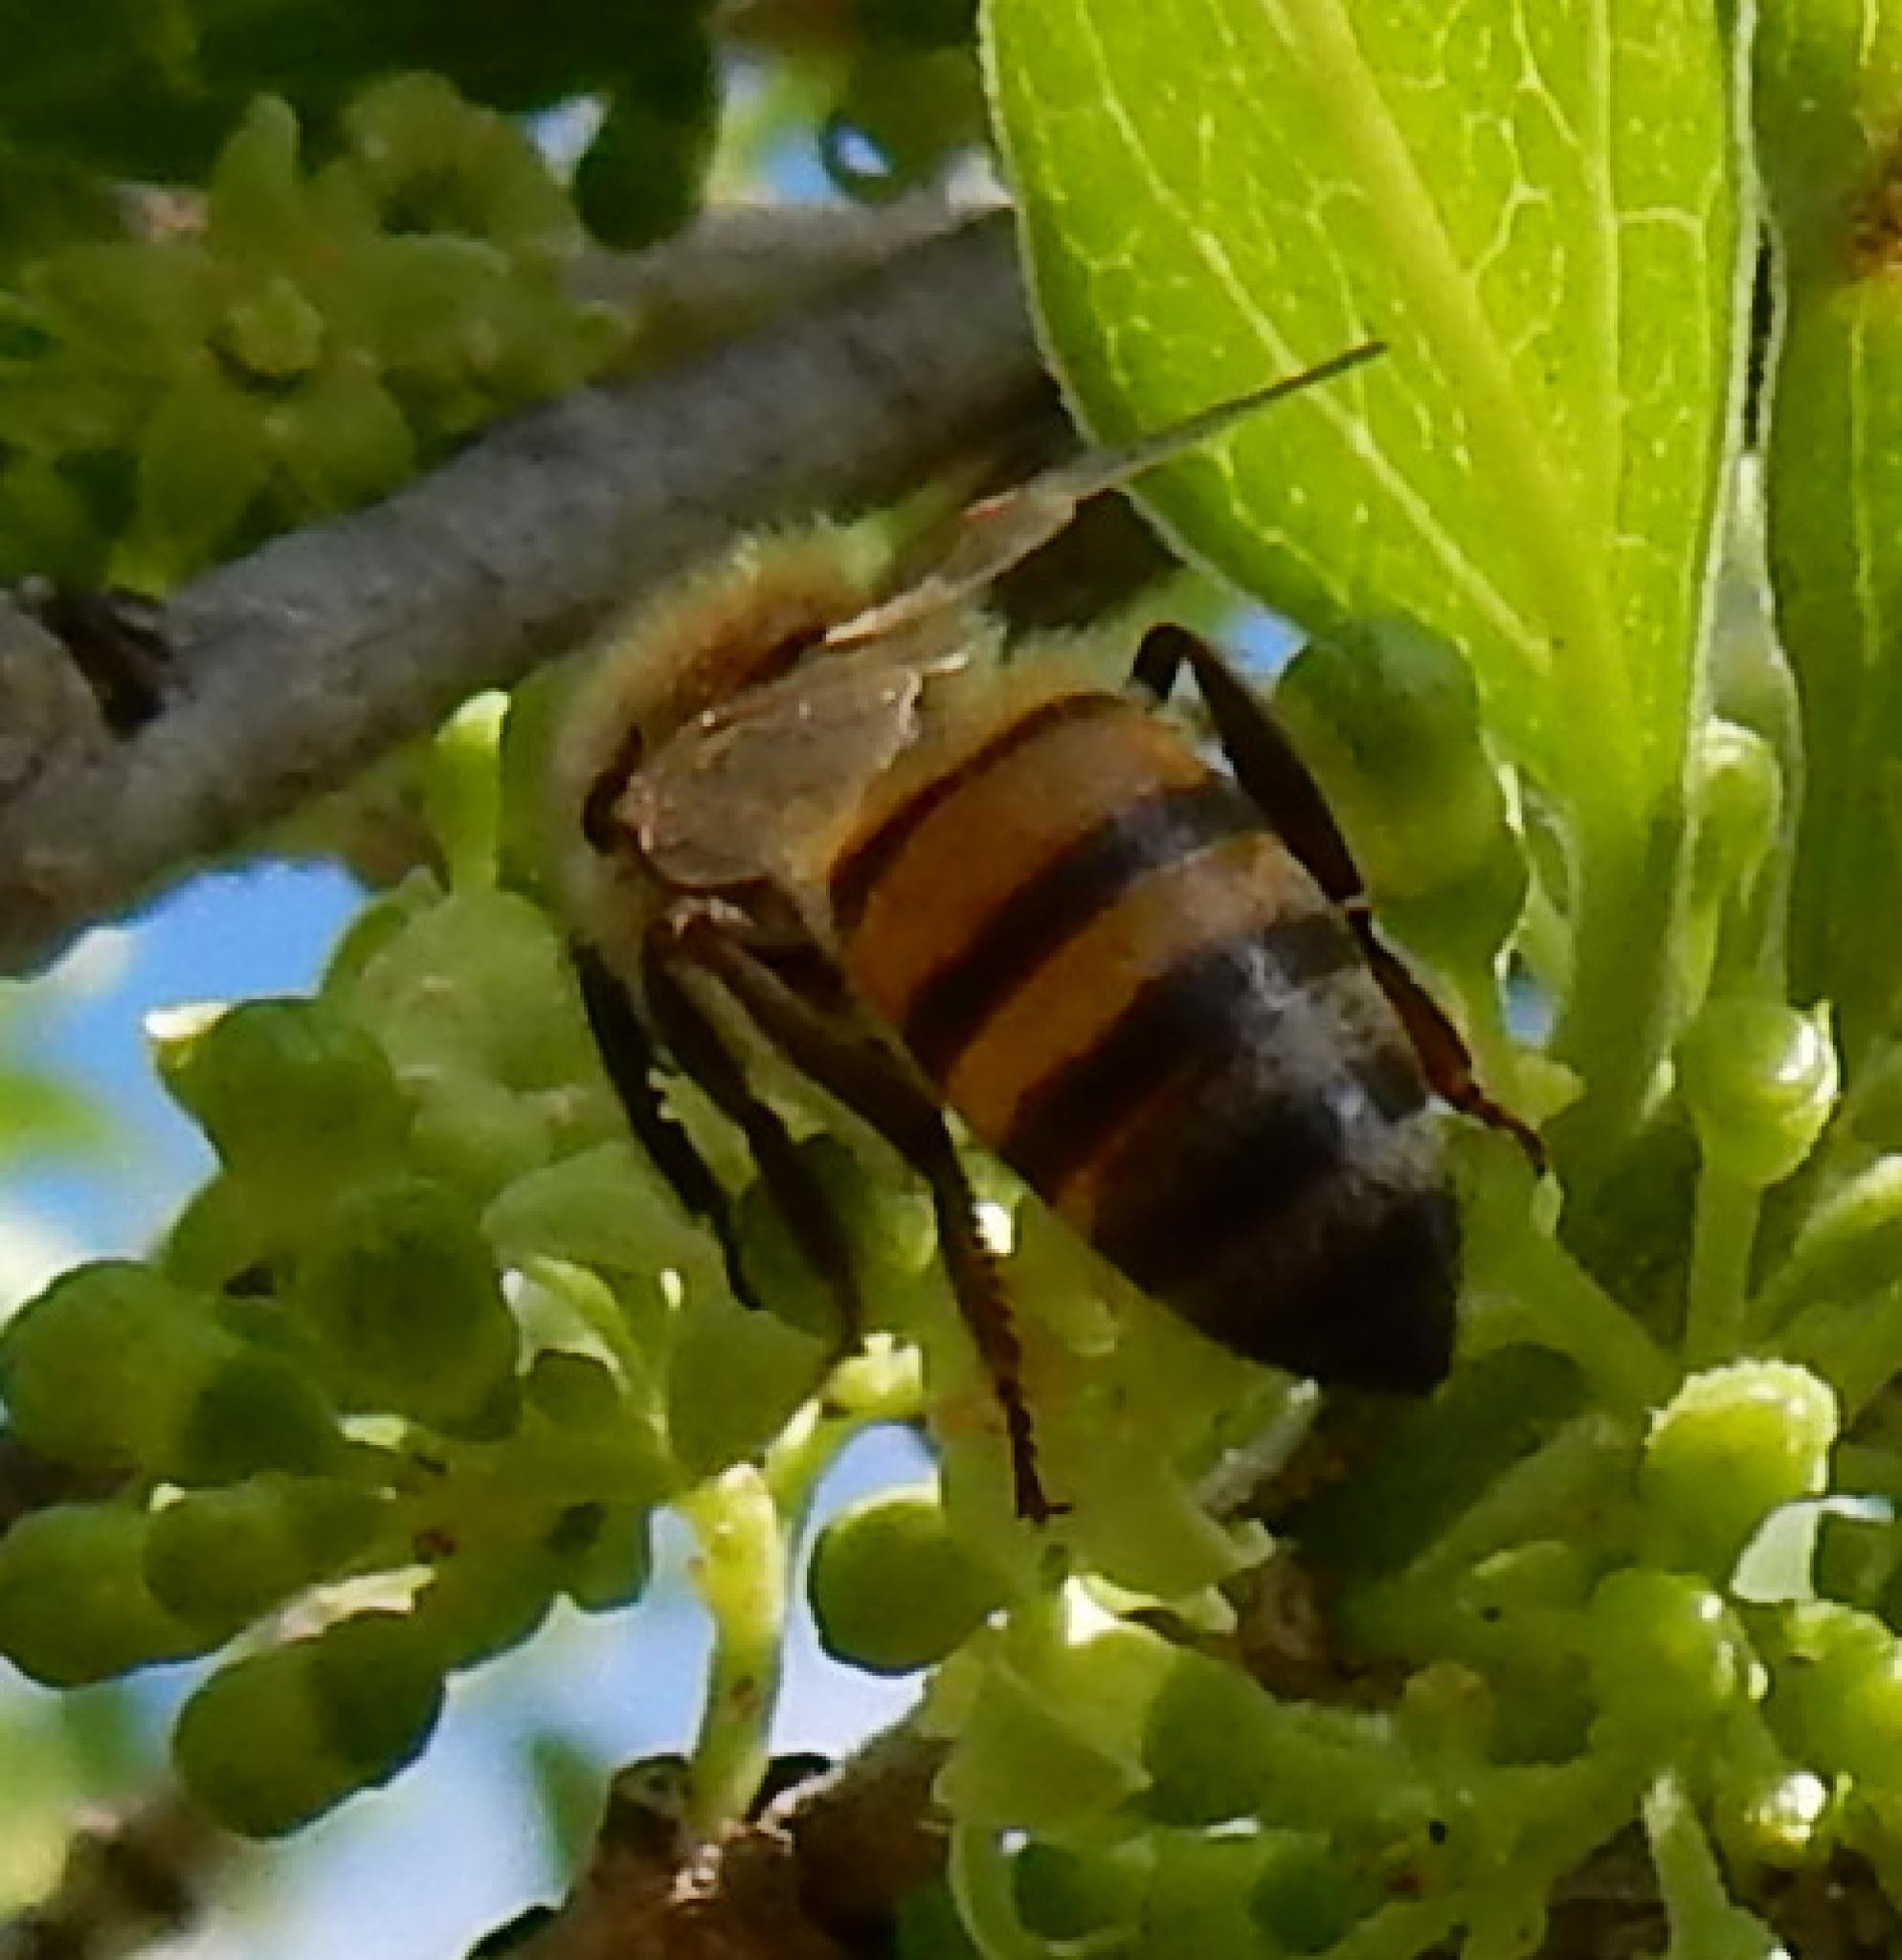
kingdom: Animalia
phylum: Arthropoda
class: Insecta
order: Hymenoptera
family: Apidae
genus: Apis
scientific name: Apis mellifera
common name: Honey bee
